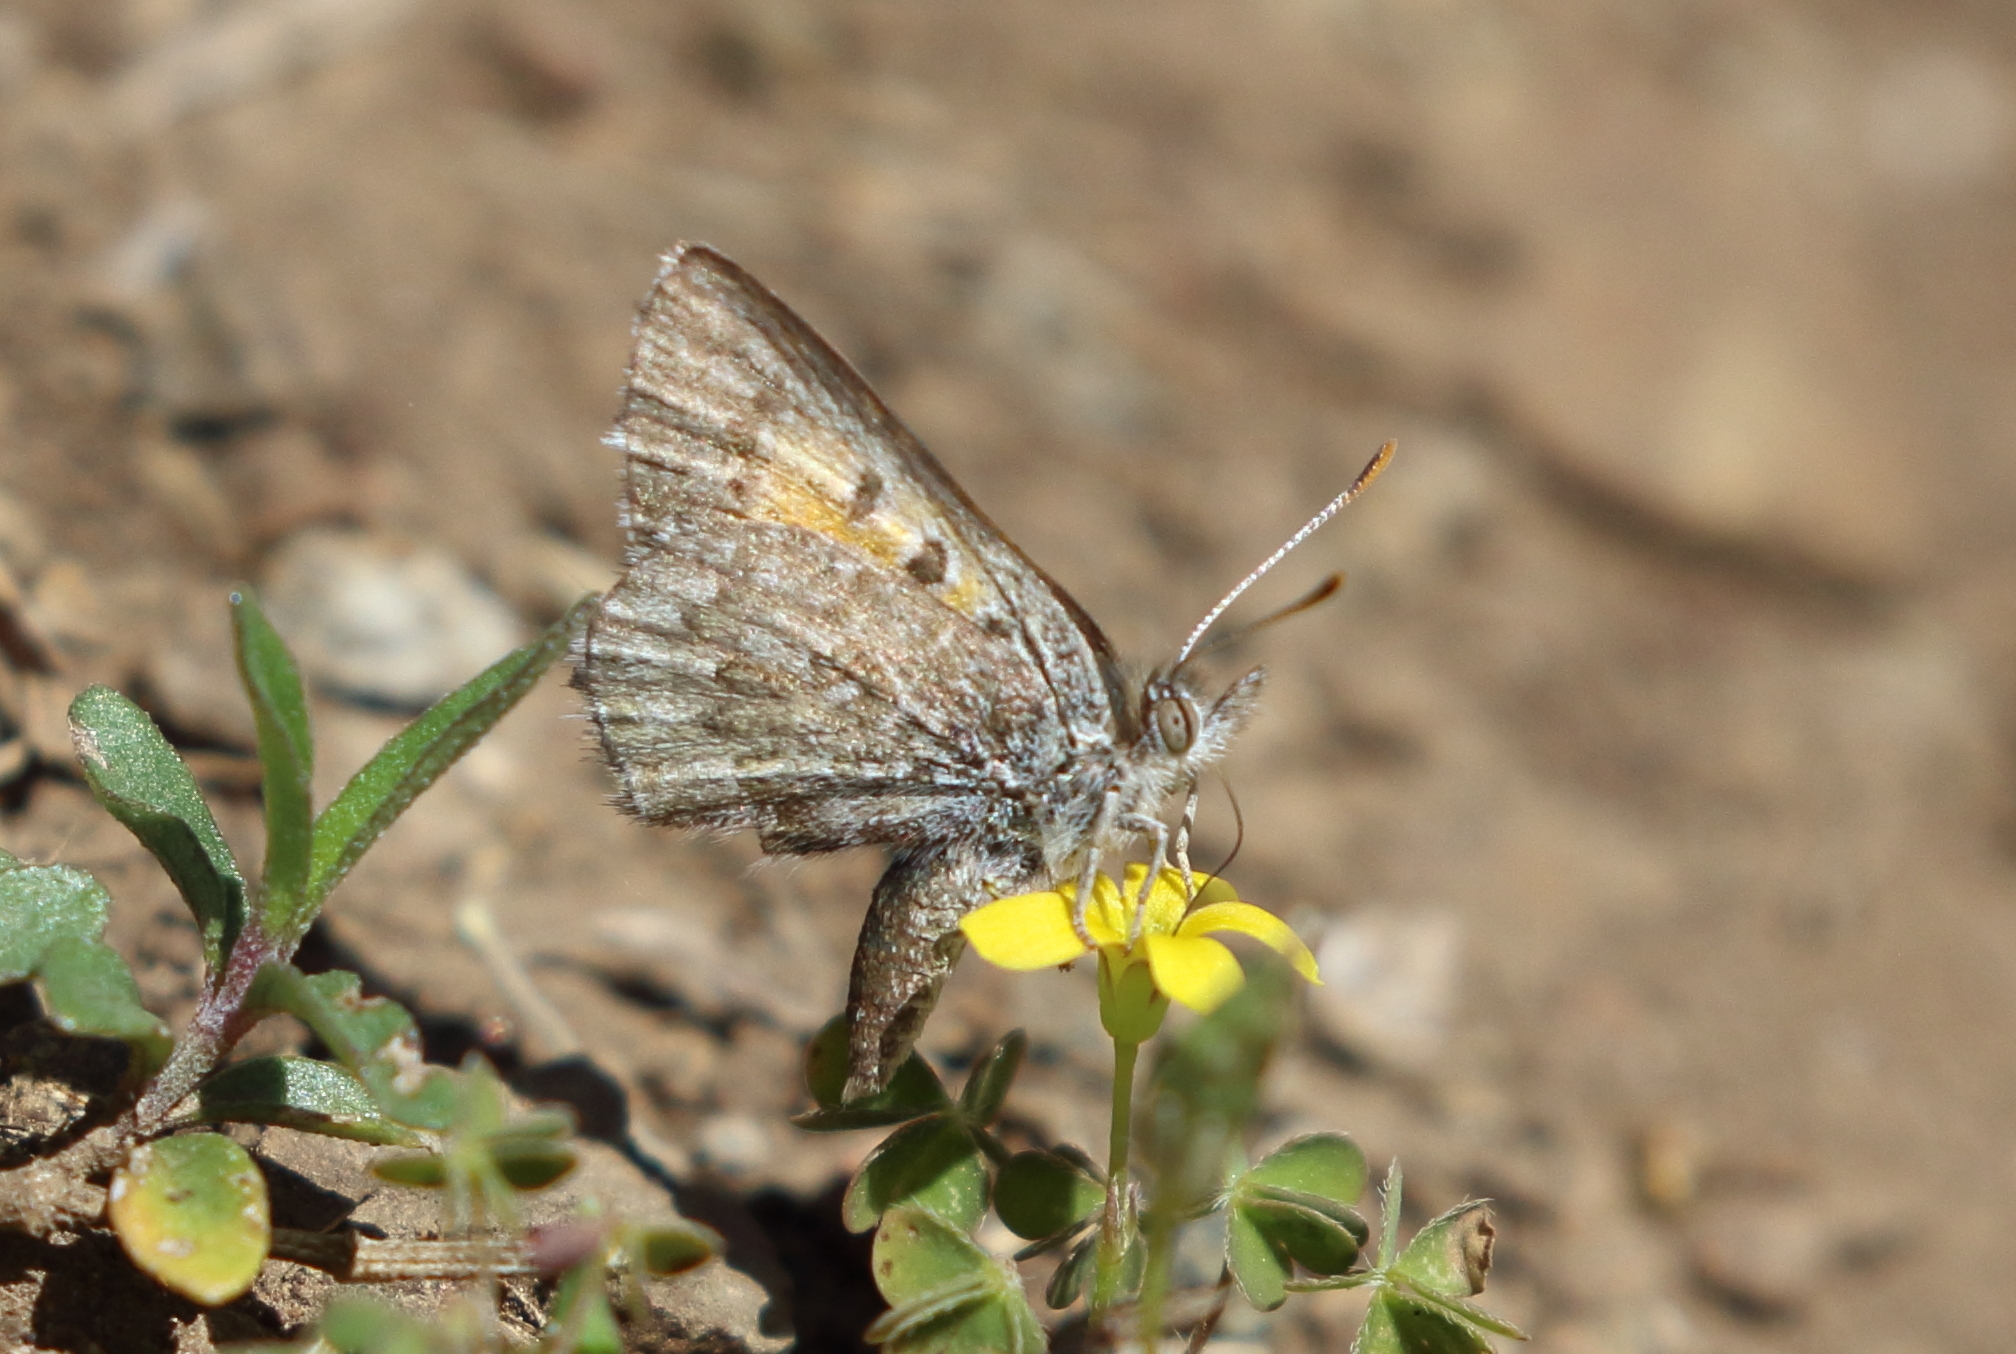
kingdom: Animalia
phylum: Arthropoda
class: Insecta
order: Lepidoptera
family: Lycaenidae
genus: Lucia
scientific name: Lucia limbaria
